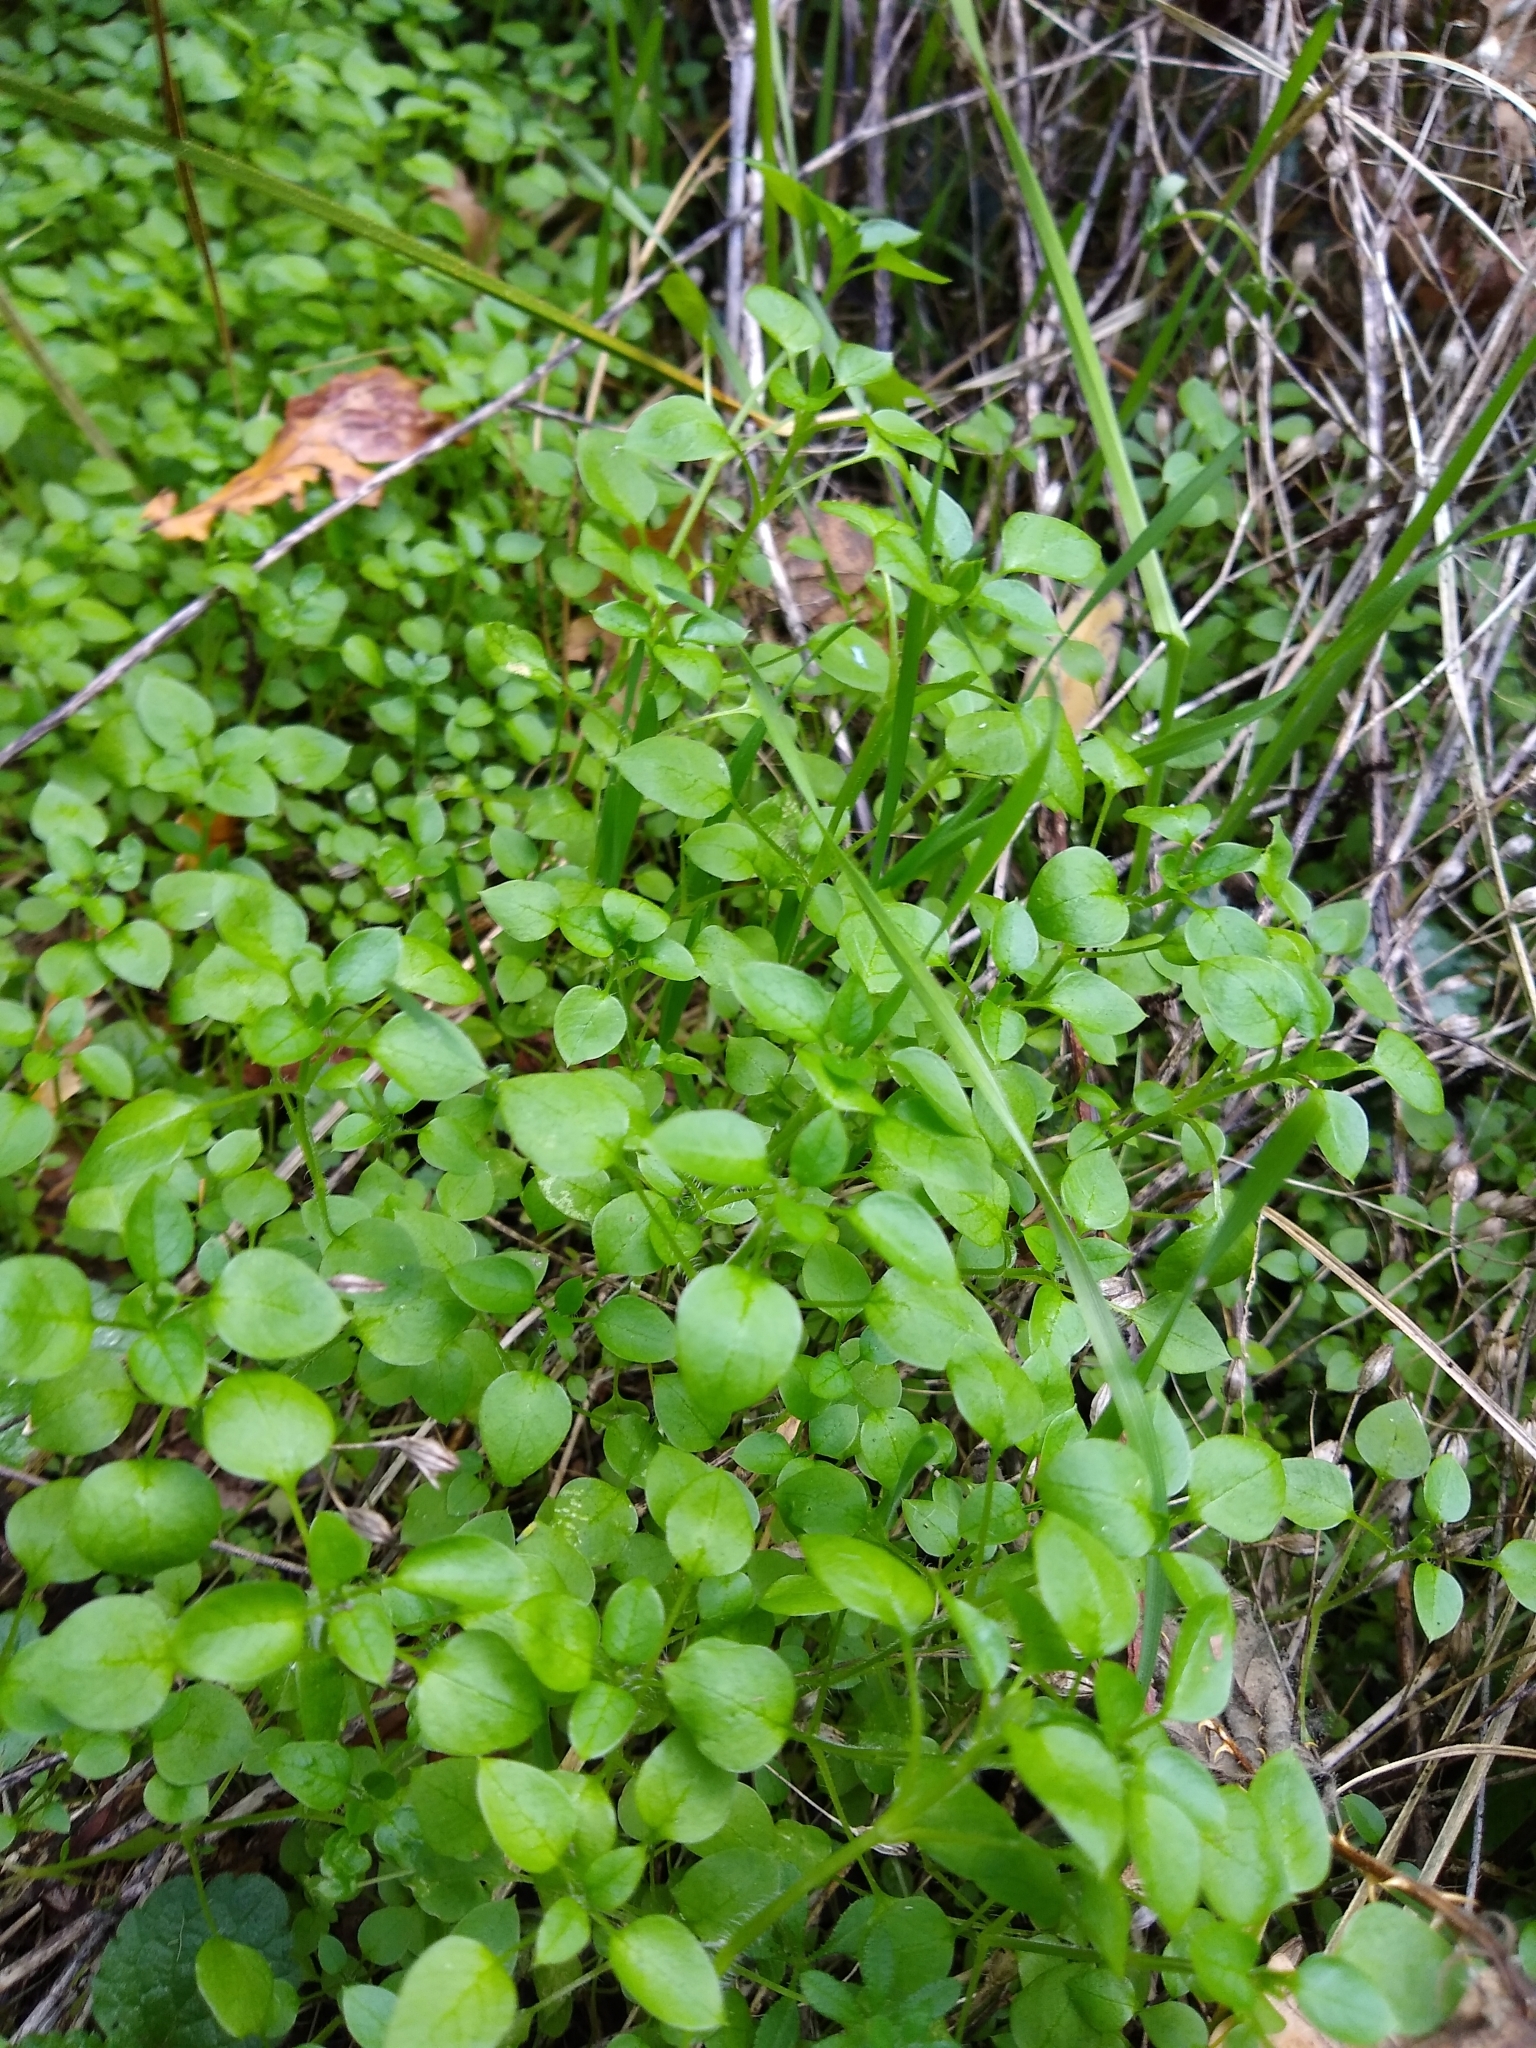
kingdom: Plantae
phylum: Tracheophyta
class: Magnoliopsida
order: Caryophyllales
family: Caryophyllaceae
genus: Stellaria
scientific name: Stellaria media
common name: Common chickweed
